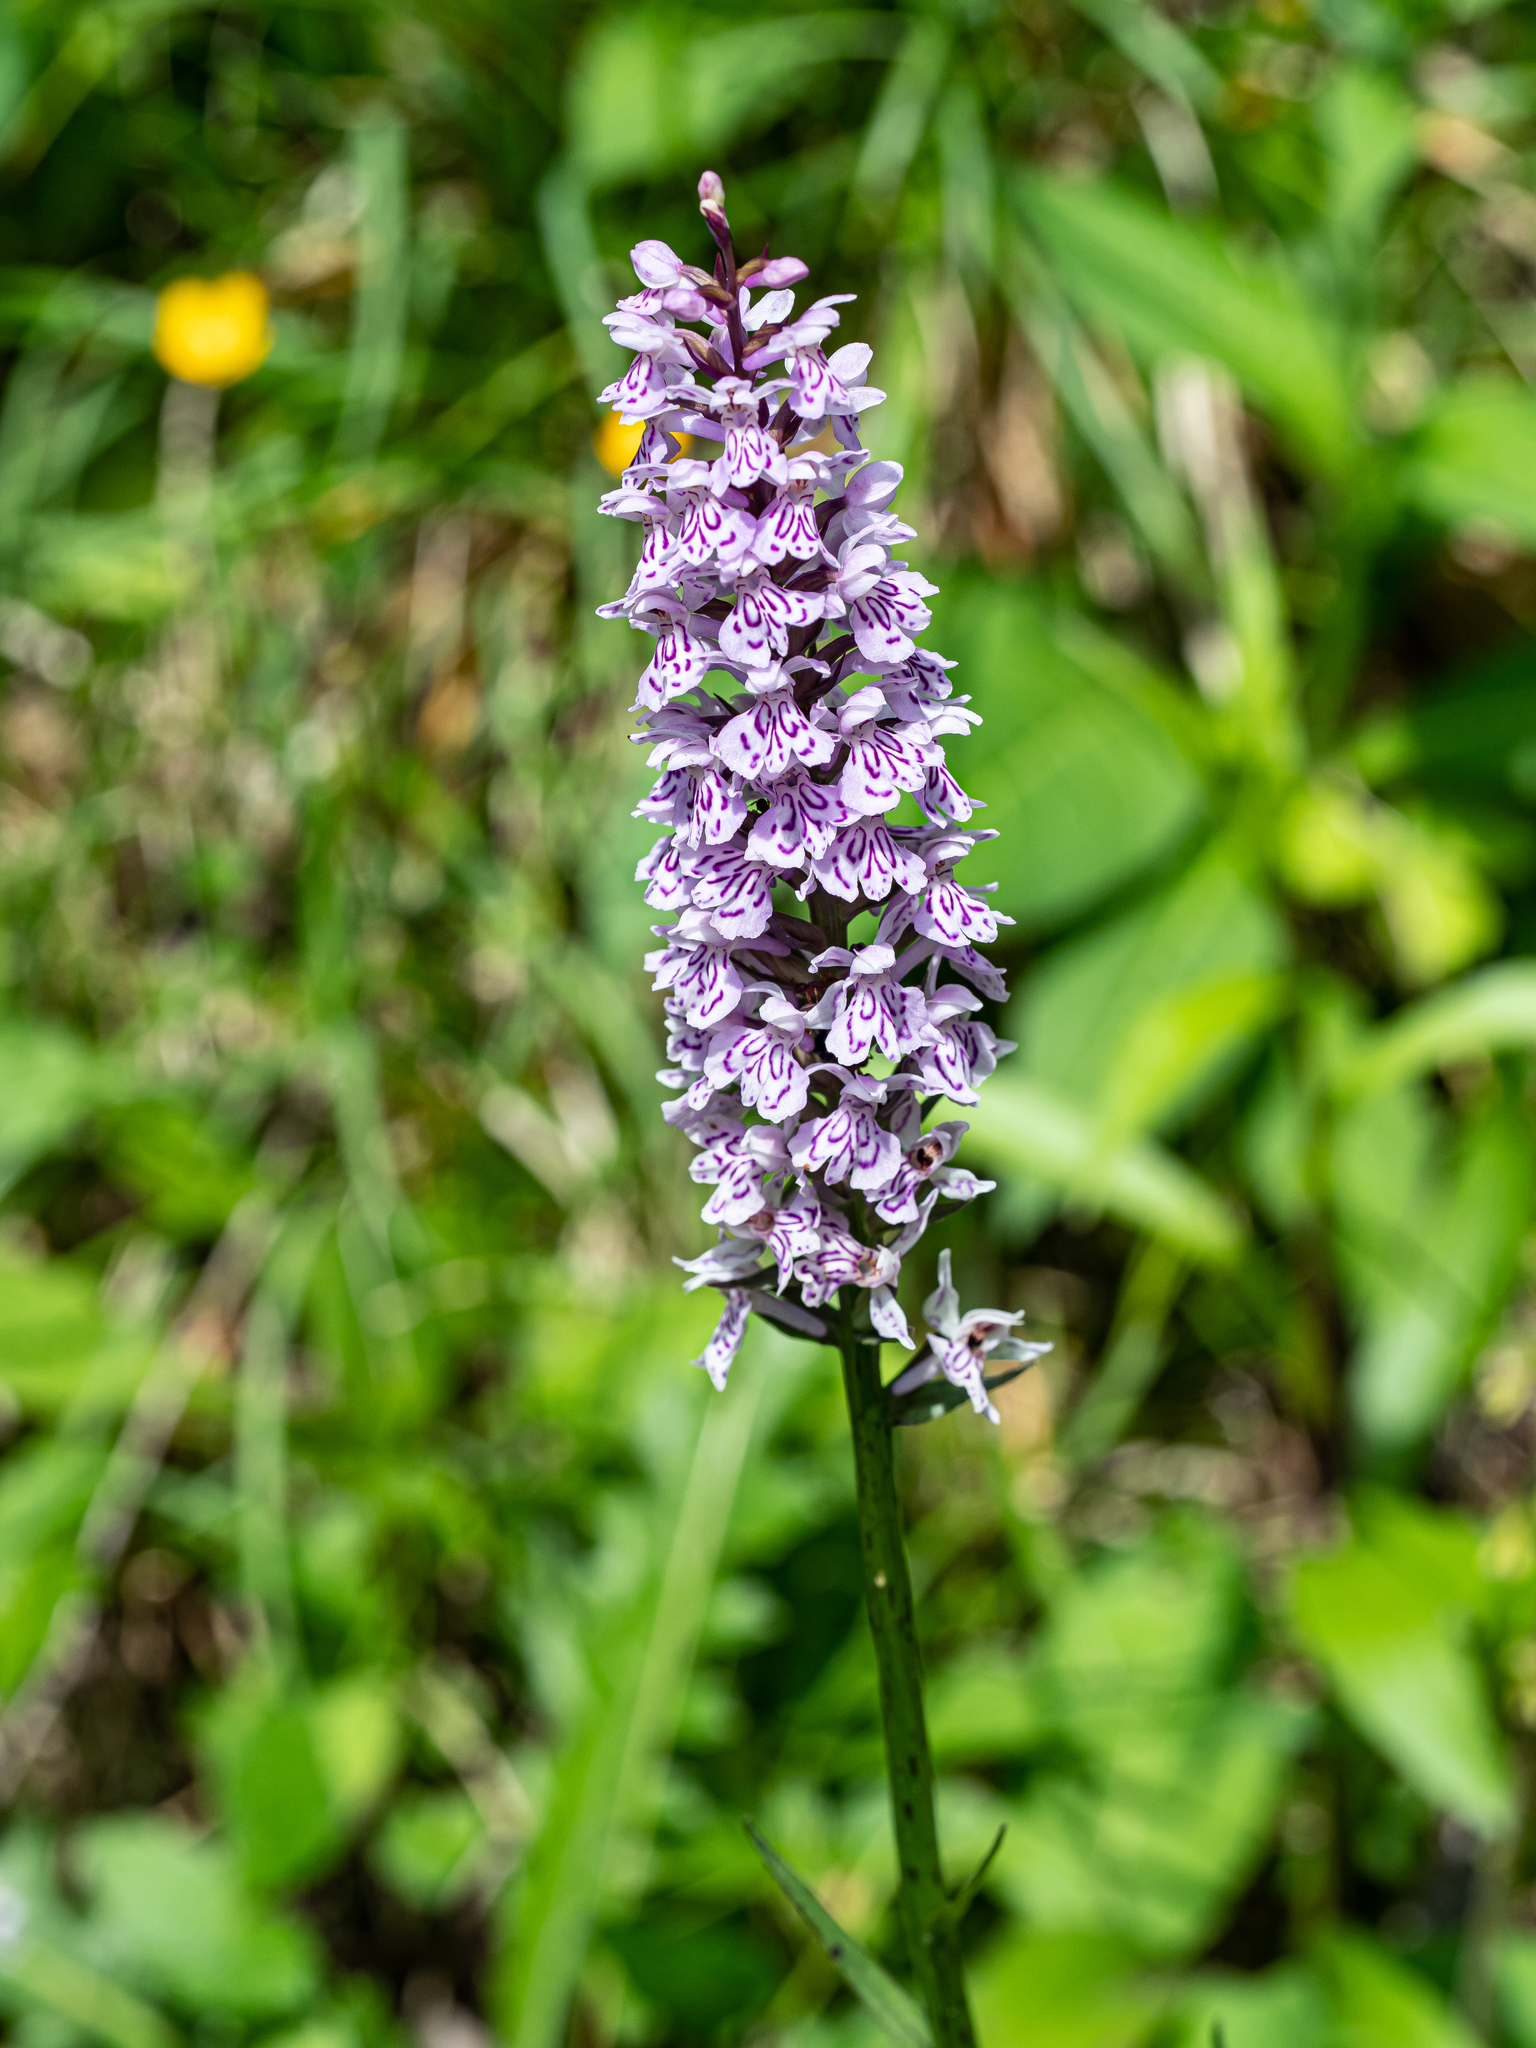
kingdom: Plantae
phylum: Tracheophyta
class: Liliopsida
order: Asparagales
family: Orchidaceae
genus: Dactylorhiza
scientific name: Dactylorhiza maculata
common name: Heath spotted-orchid
